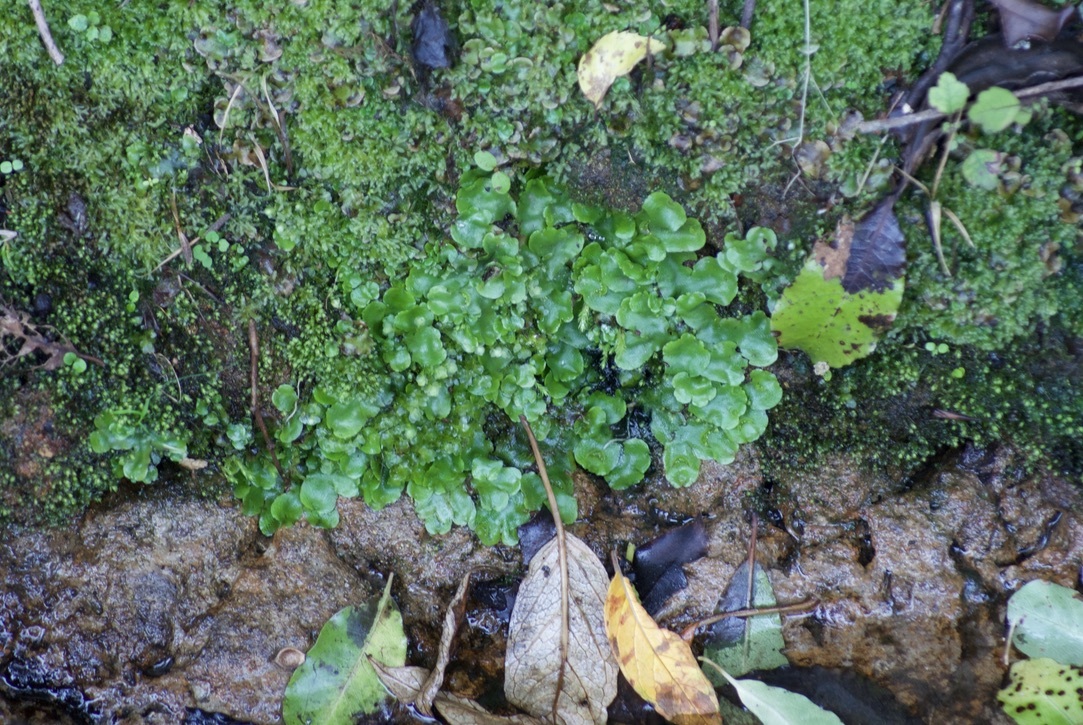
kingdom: Plantae
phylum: Marchantiophyta
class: Marchantiopsida
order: Lunulariales
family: Lunulariaceae
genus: Lunularia
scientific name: Lunularia cruciata
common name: Crescent-cup liverwort
